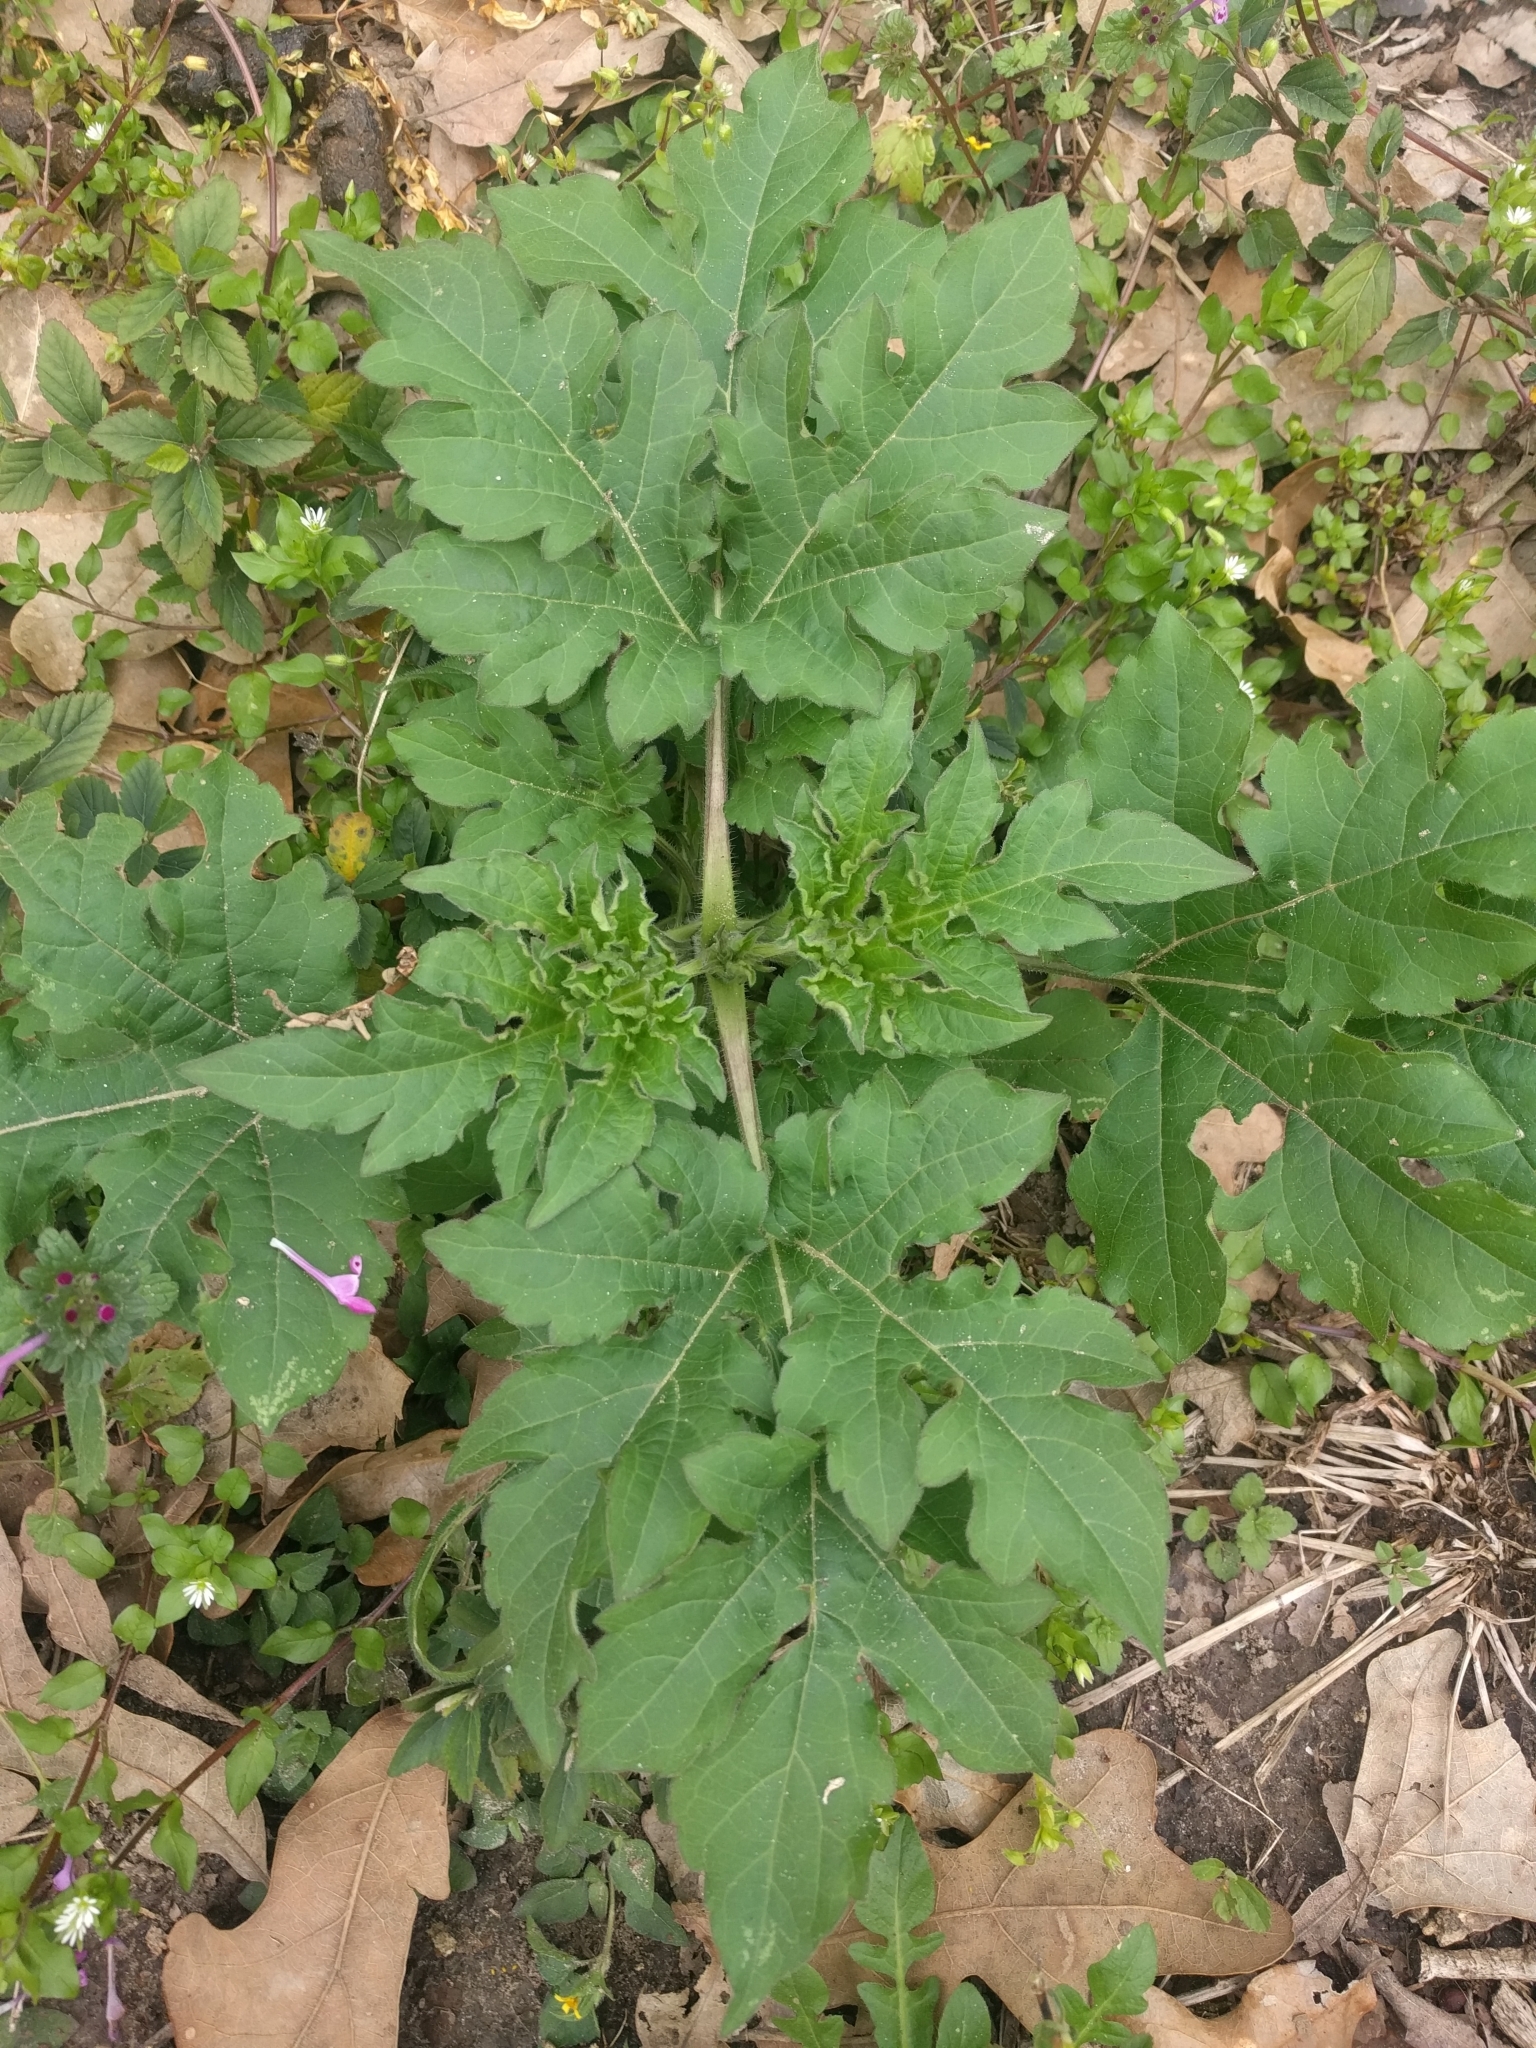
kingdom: Plantae
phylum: Tracheophyta
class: Magnoliopsida
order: Asterales
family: Asteraceae
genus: Ambrosia
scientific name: Ambrosia trifida
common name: Giant ragweed
